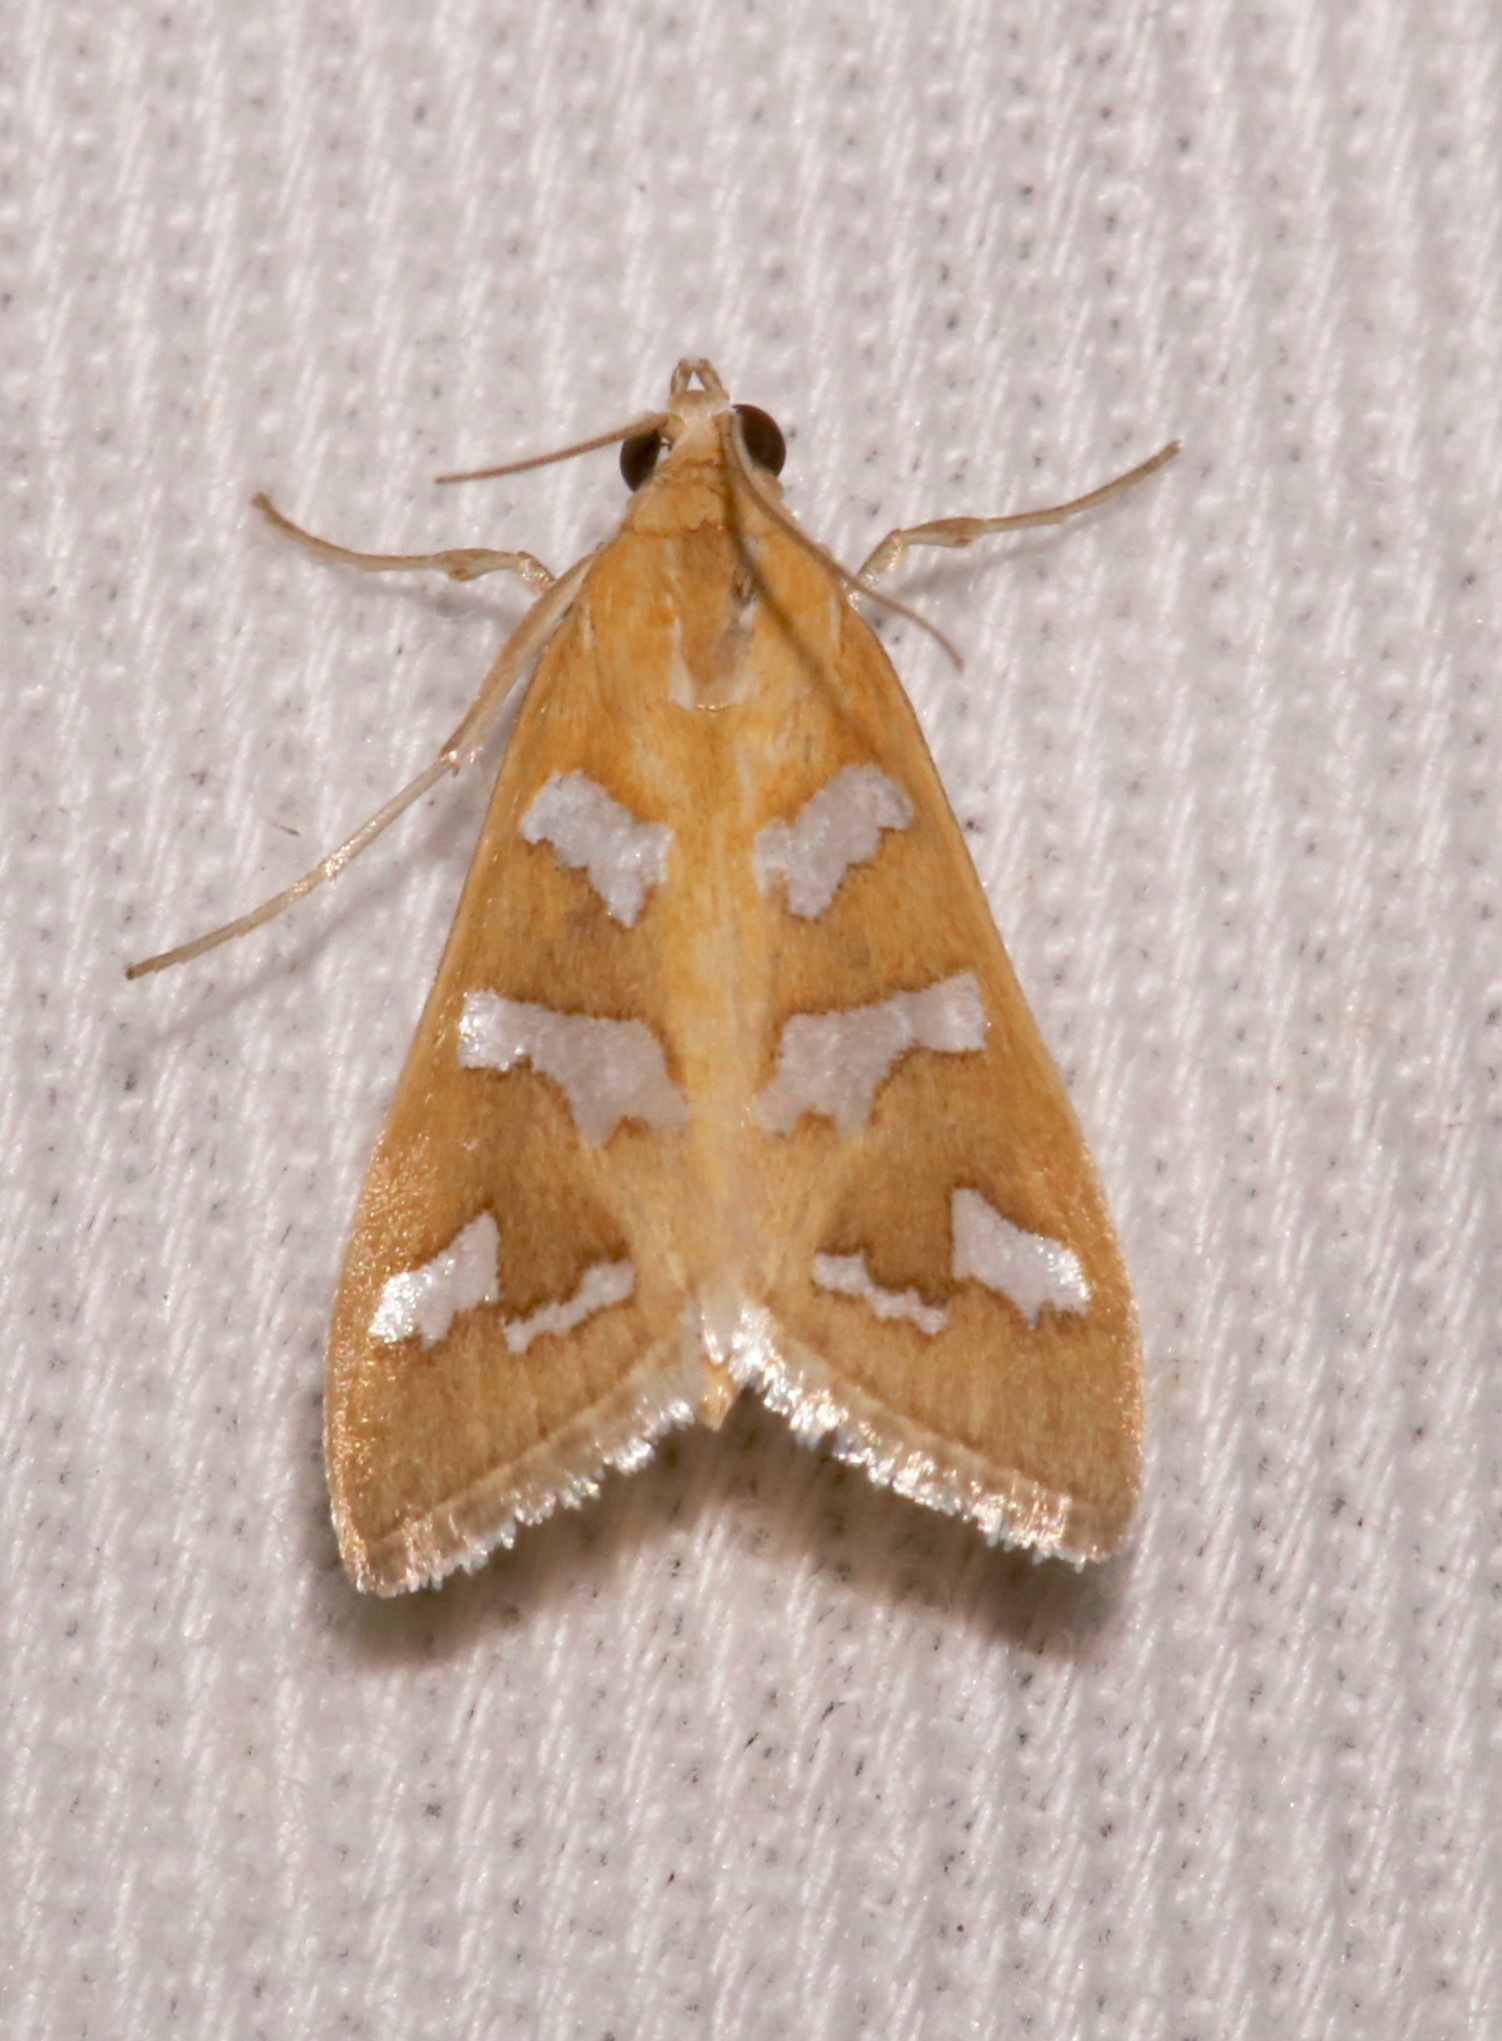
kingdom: Animalia
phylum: Arthropoda
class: Insecta
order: Lepidoptera
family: Crambidae
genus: Diastictis
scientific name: Diastictis fracturalis
